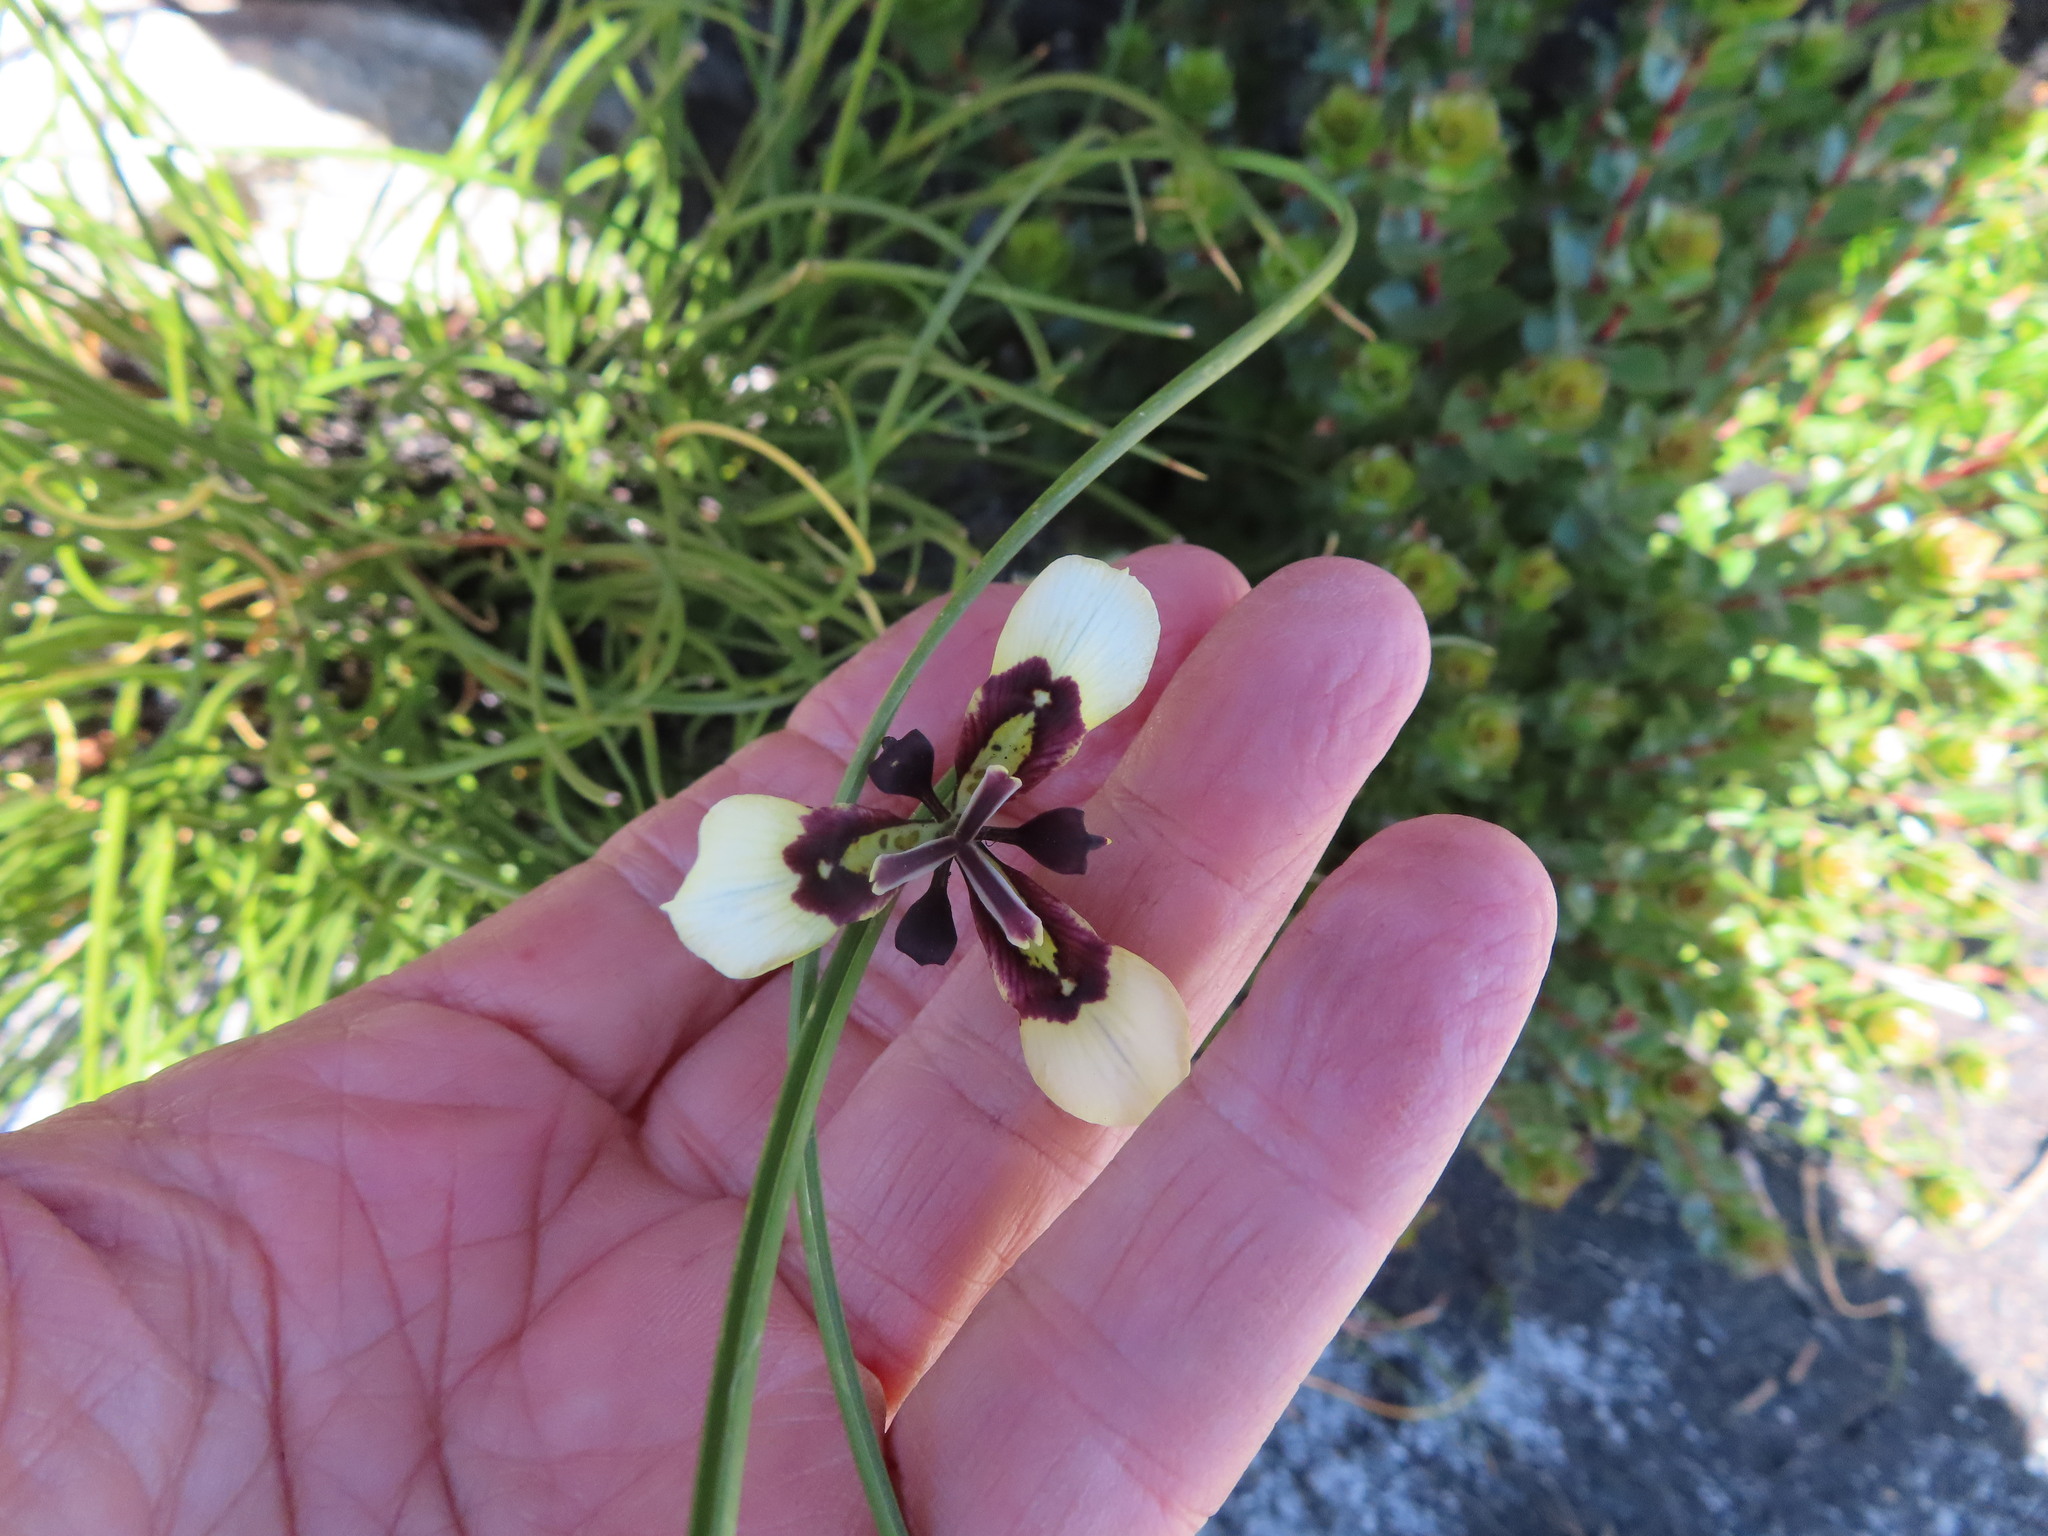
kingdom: Plantae
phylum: Tracheophyta
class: Liliopsida
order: Asparagales
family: Iridaceae
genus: Moraea
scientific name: Moraea lurida
